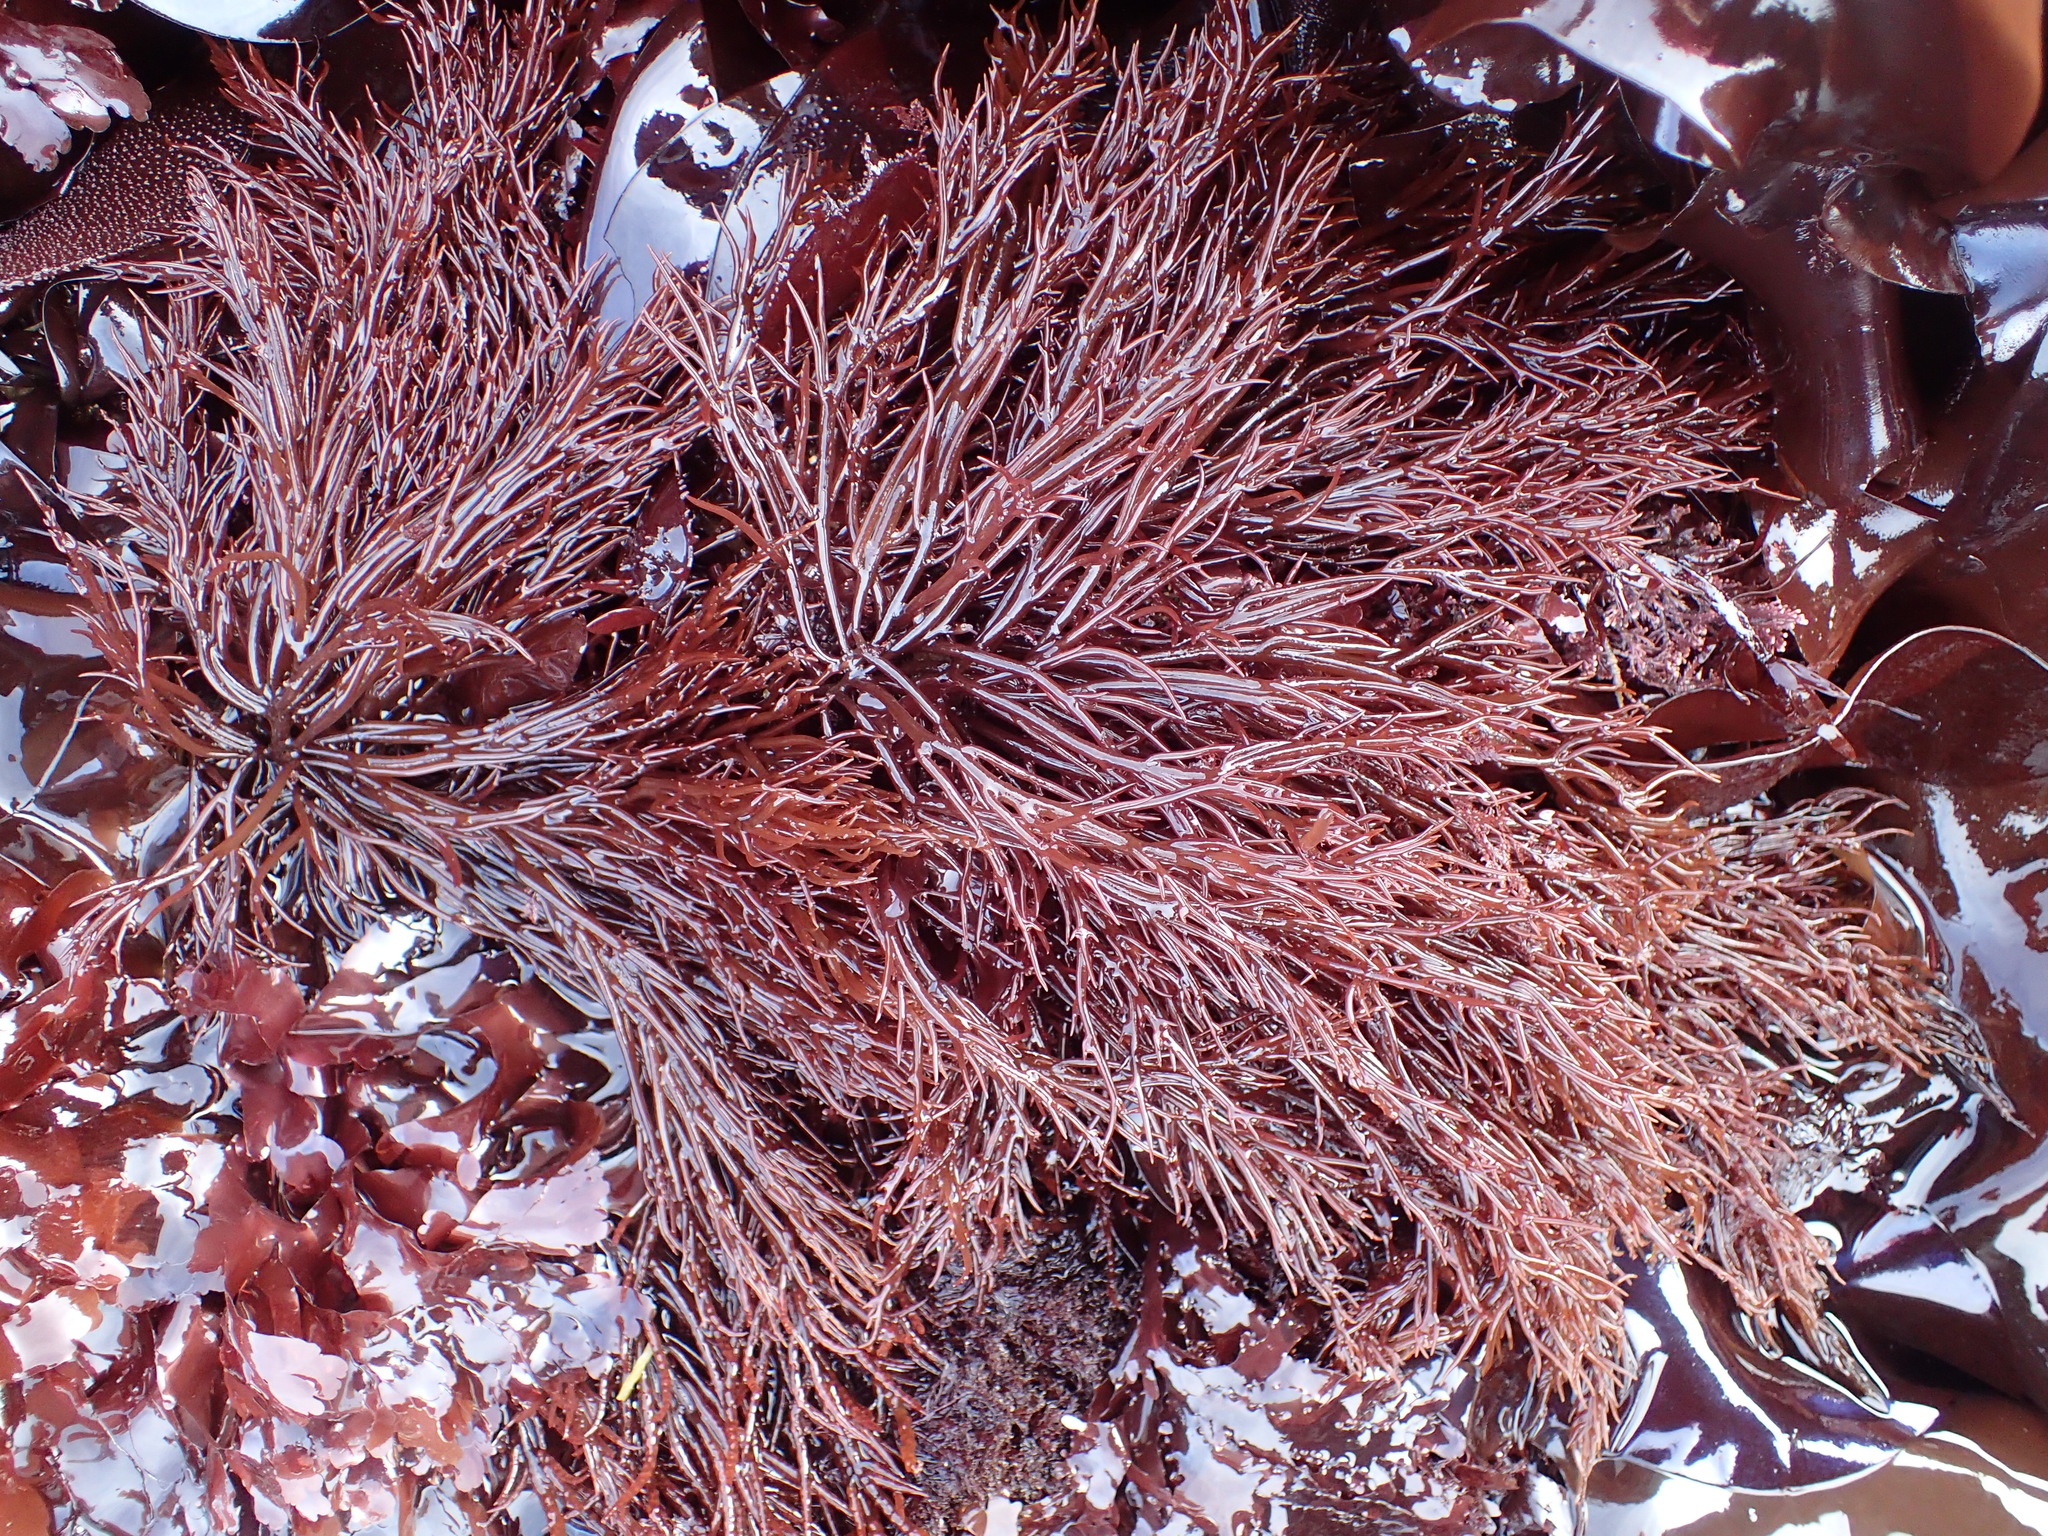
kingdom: Plantae
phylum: Rhodophyta
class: Florideophyceae
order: Gigartinales
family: Solieriaceae
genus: Sarcodiotheca
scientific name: Sarcodiotheca gaudichaudii
